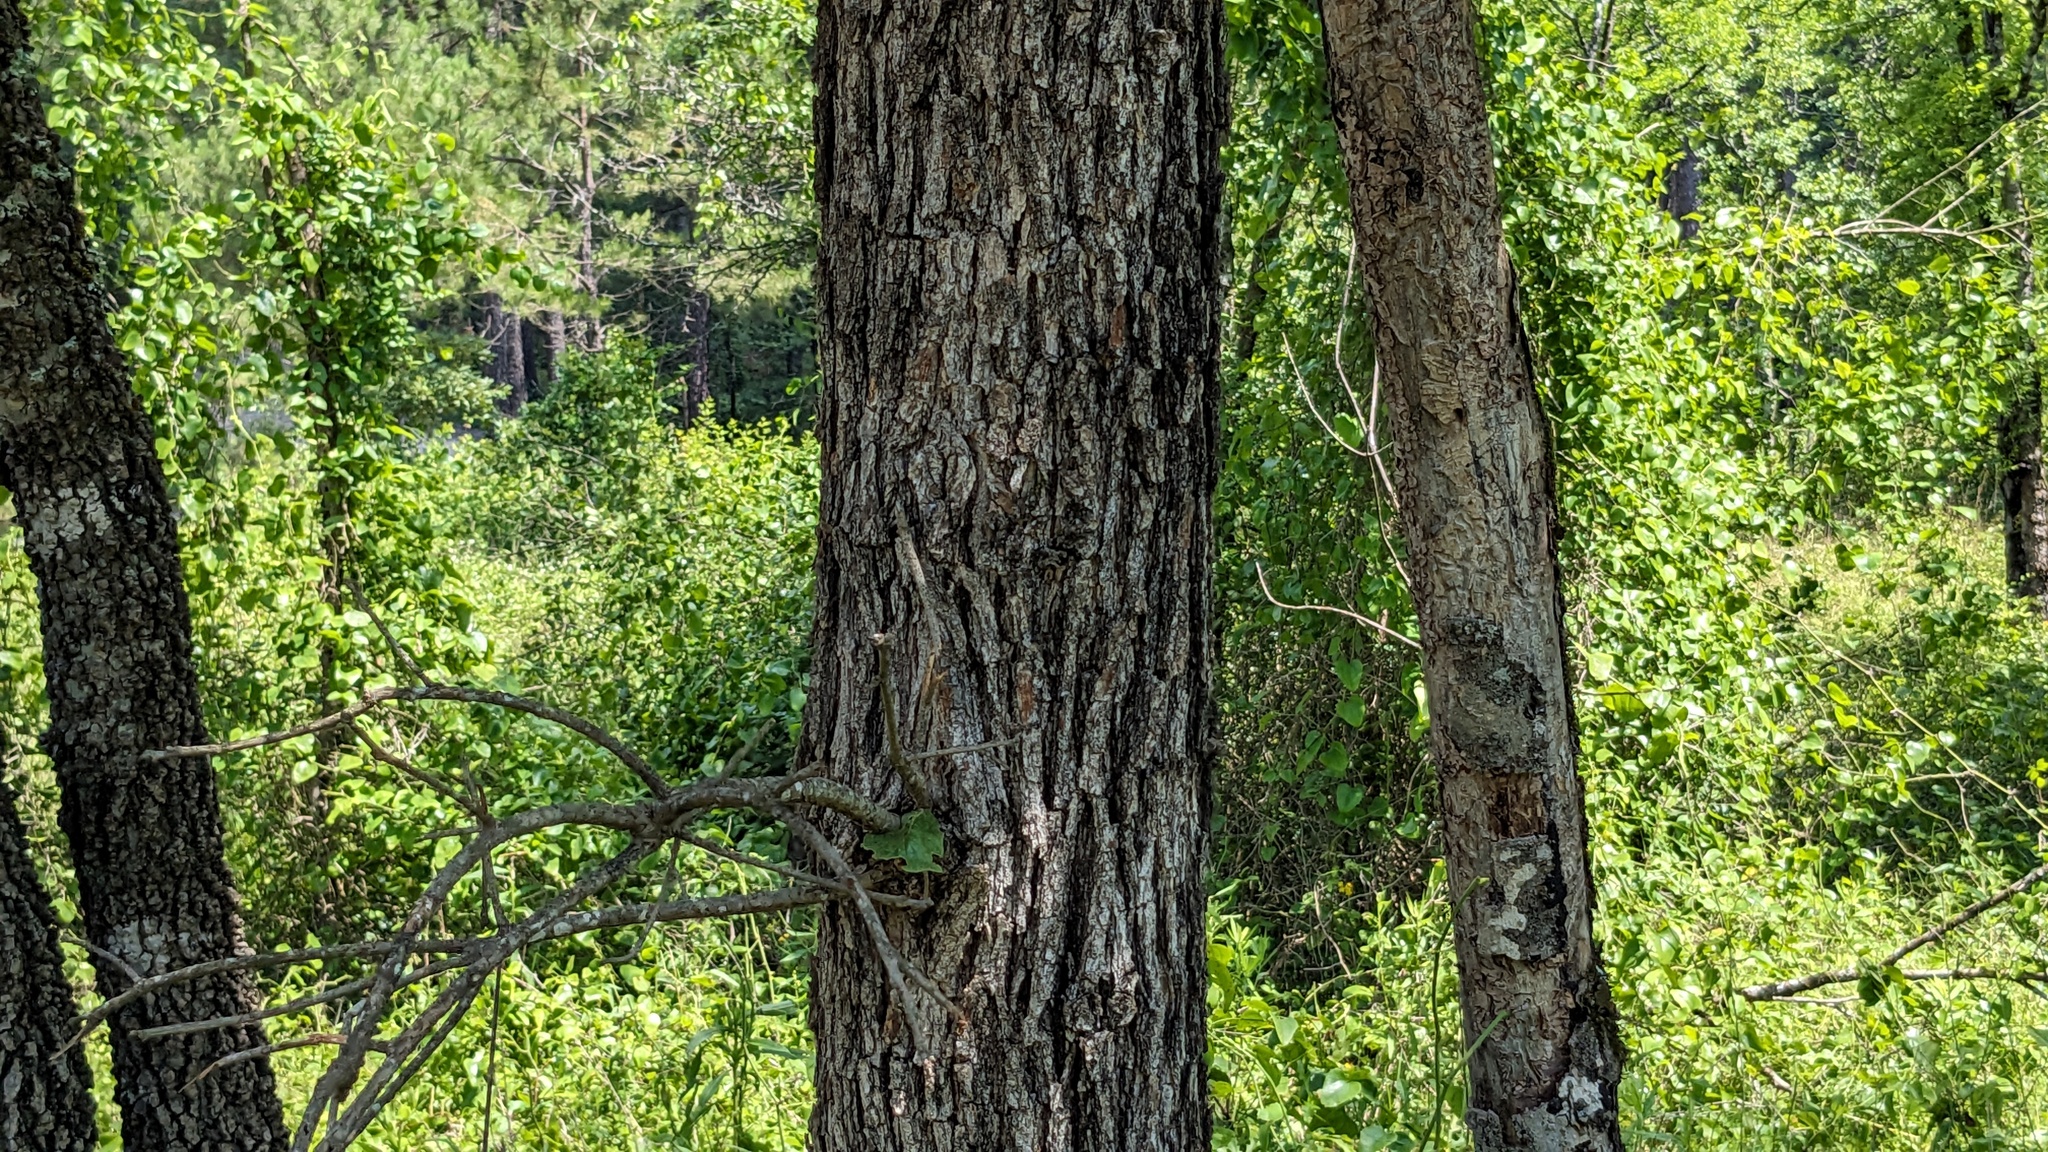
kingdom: Plantae
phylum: Tracheophyta
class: Magnoliopsida
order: Fagales
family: Fagaceae
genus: Quercus
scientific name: Quercus stellata
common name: Post oak
